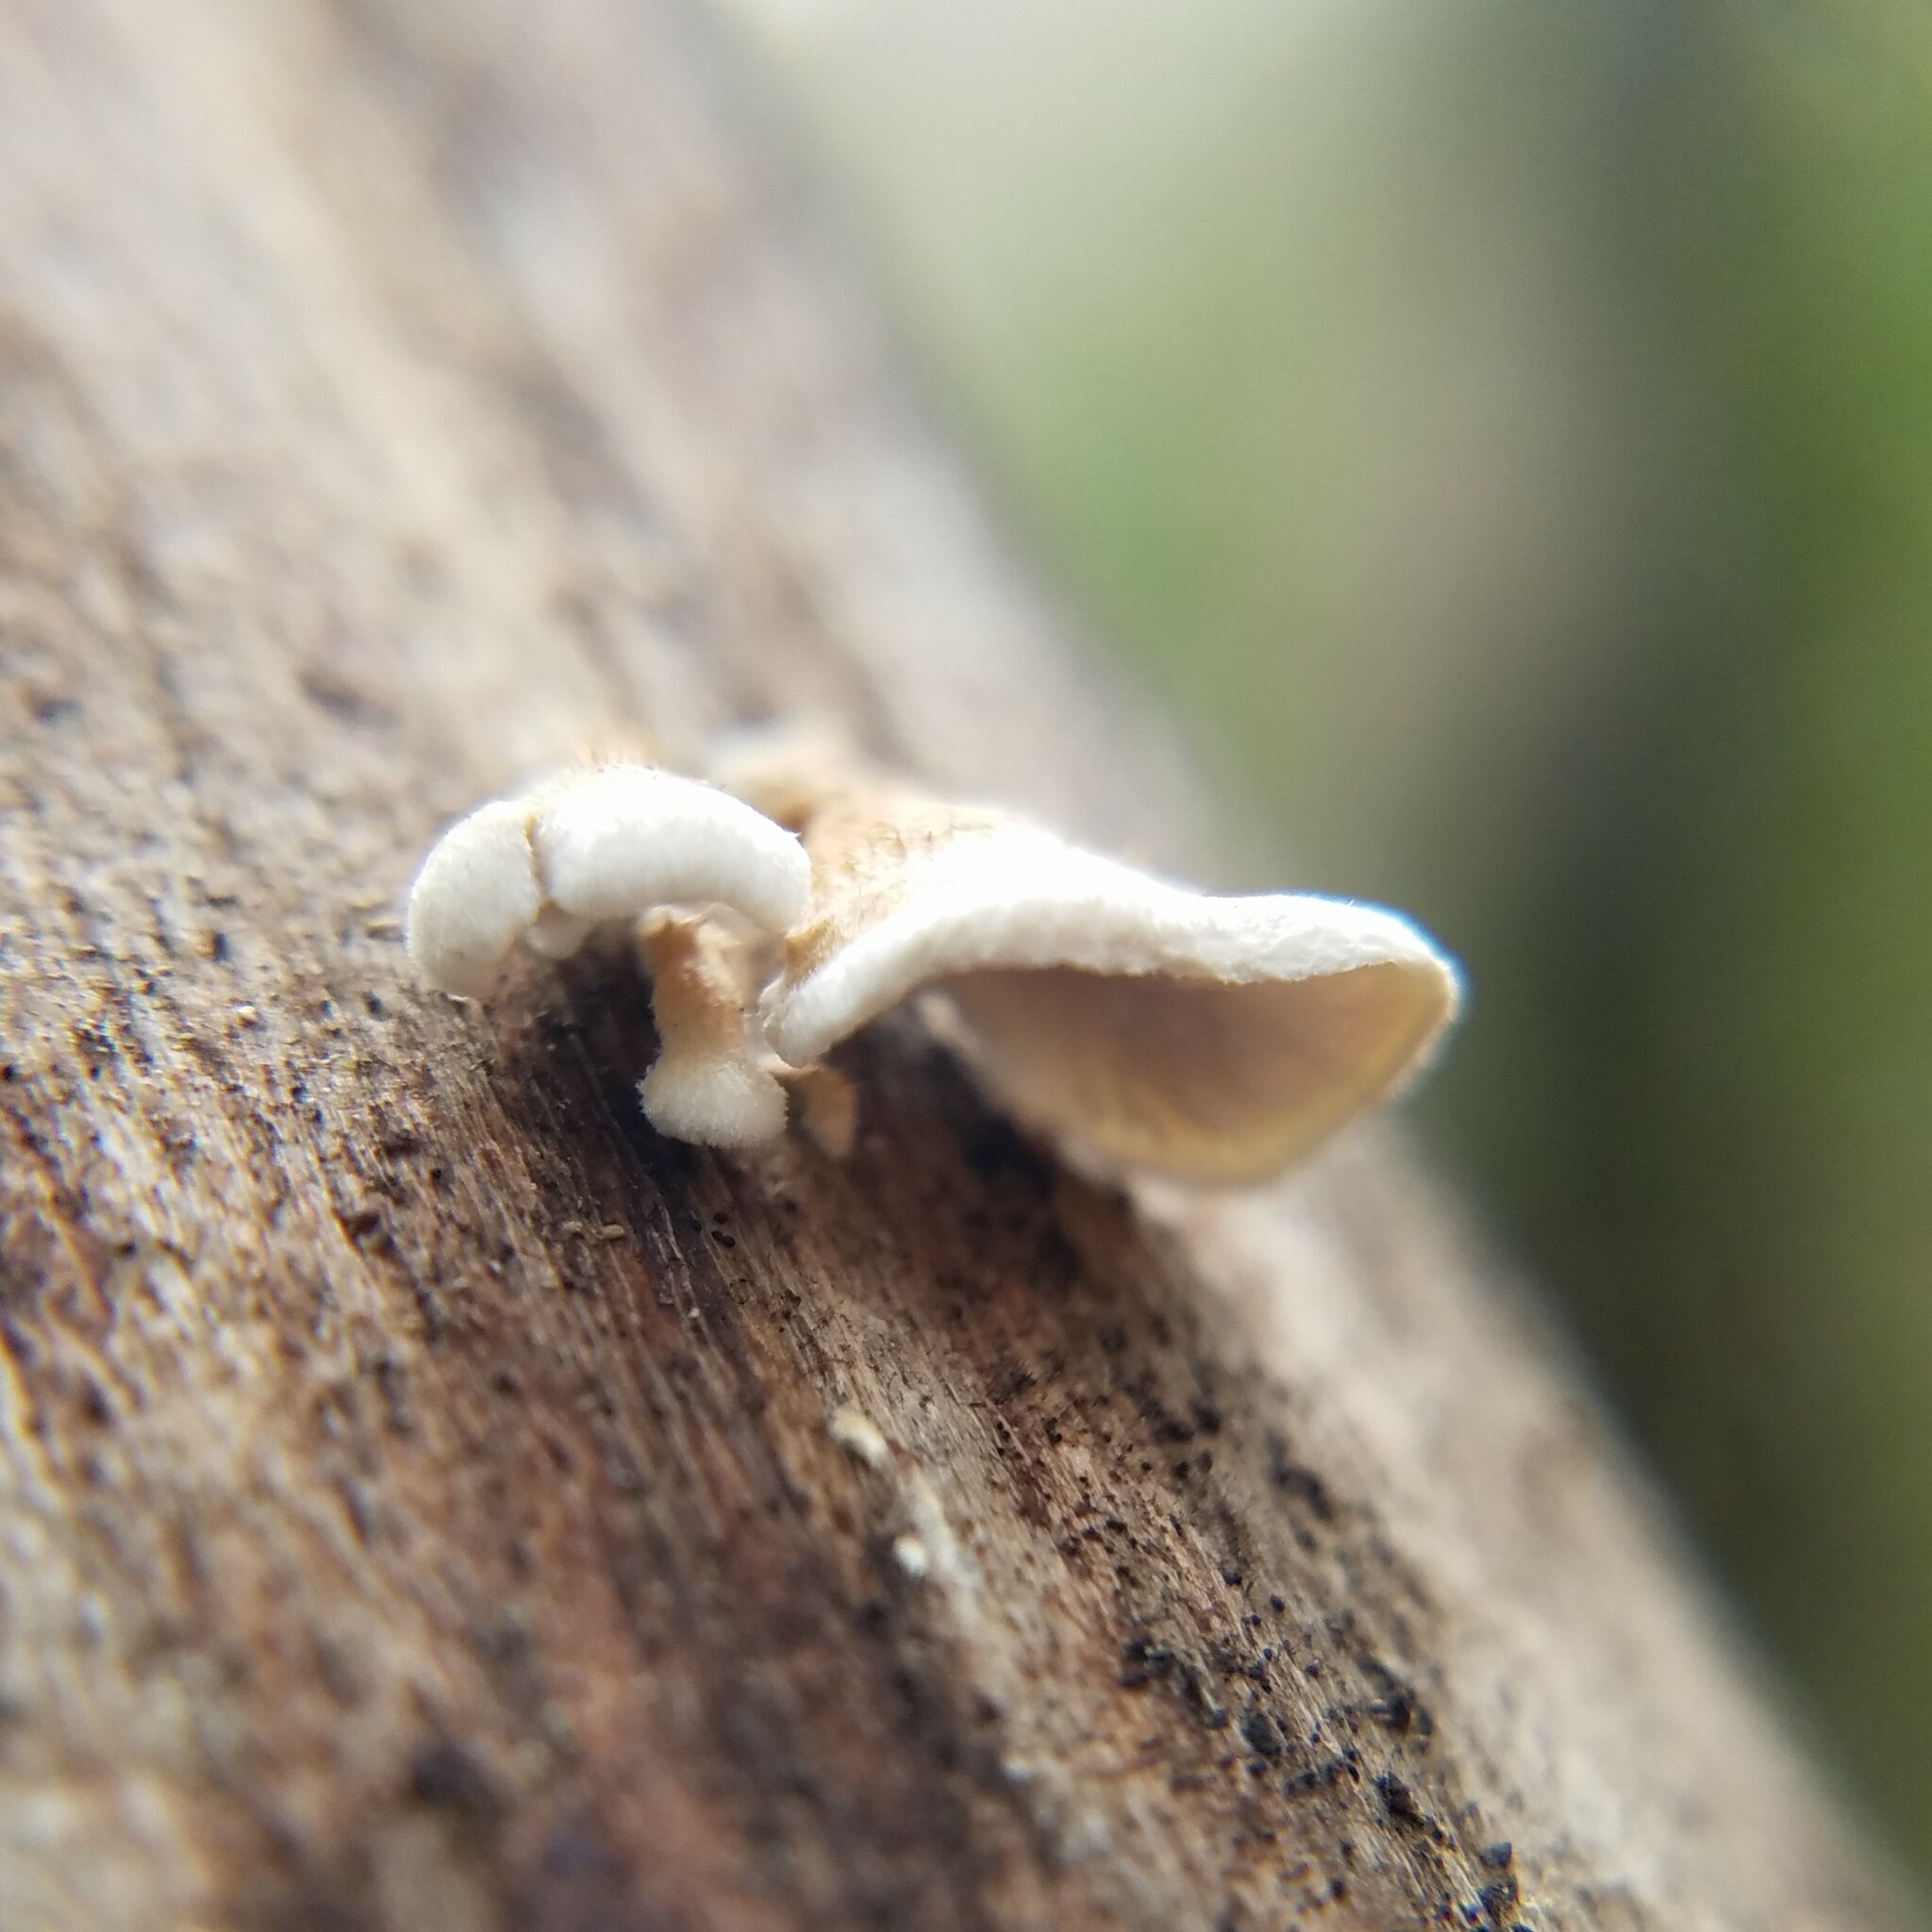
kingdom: Fungi
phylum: Basidiomycota
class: Agaricomycetes
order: Amylocorticiales
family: Amylocorticiaceae
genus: Plicaturopsis
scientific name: Plicaturopsis crispa
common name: Crimped gill
